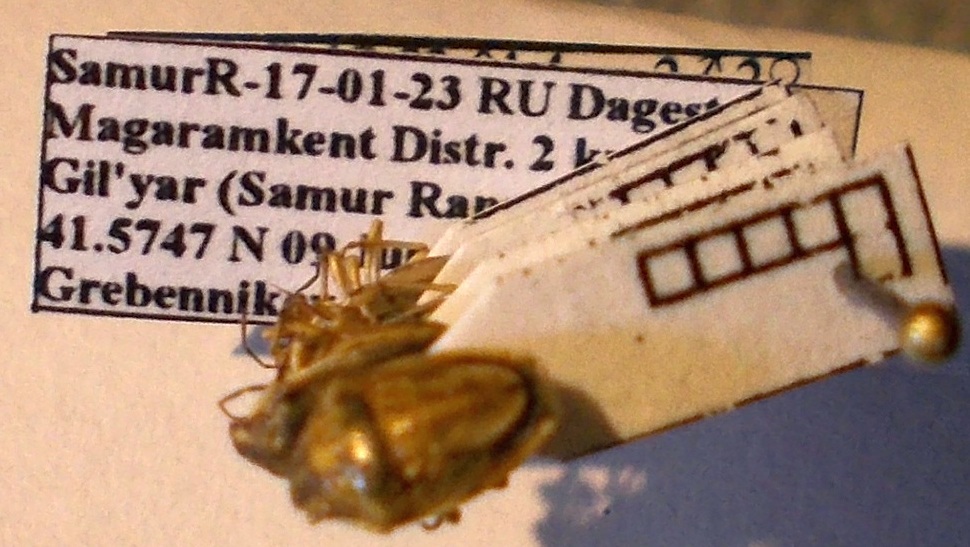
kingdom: Animalia
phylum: Arthropoda
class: Insecta
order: Hemiptera
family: Pentatomidae
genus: Neottiglossa
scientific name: Neottiglossa leporina
